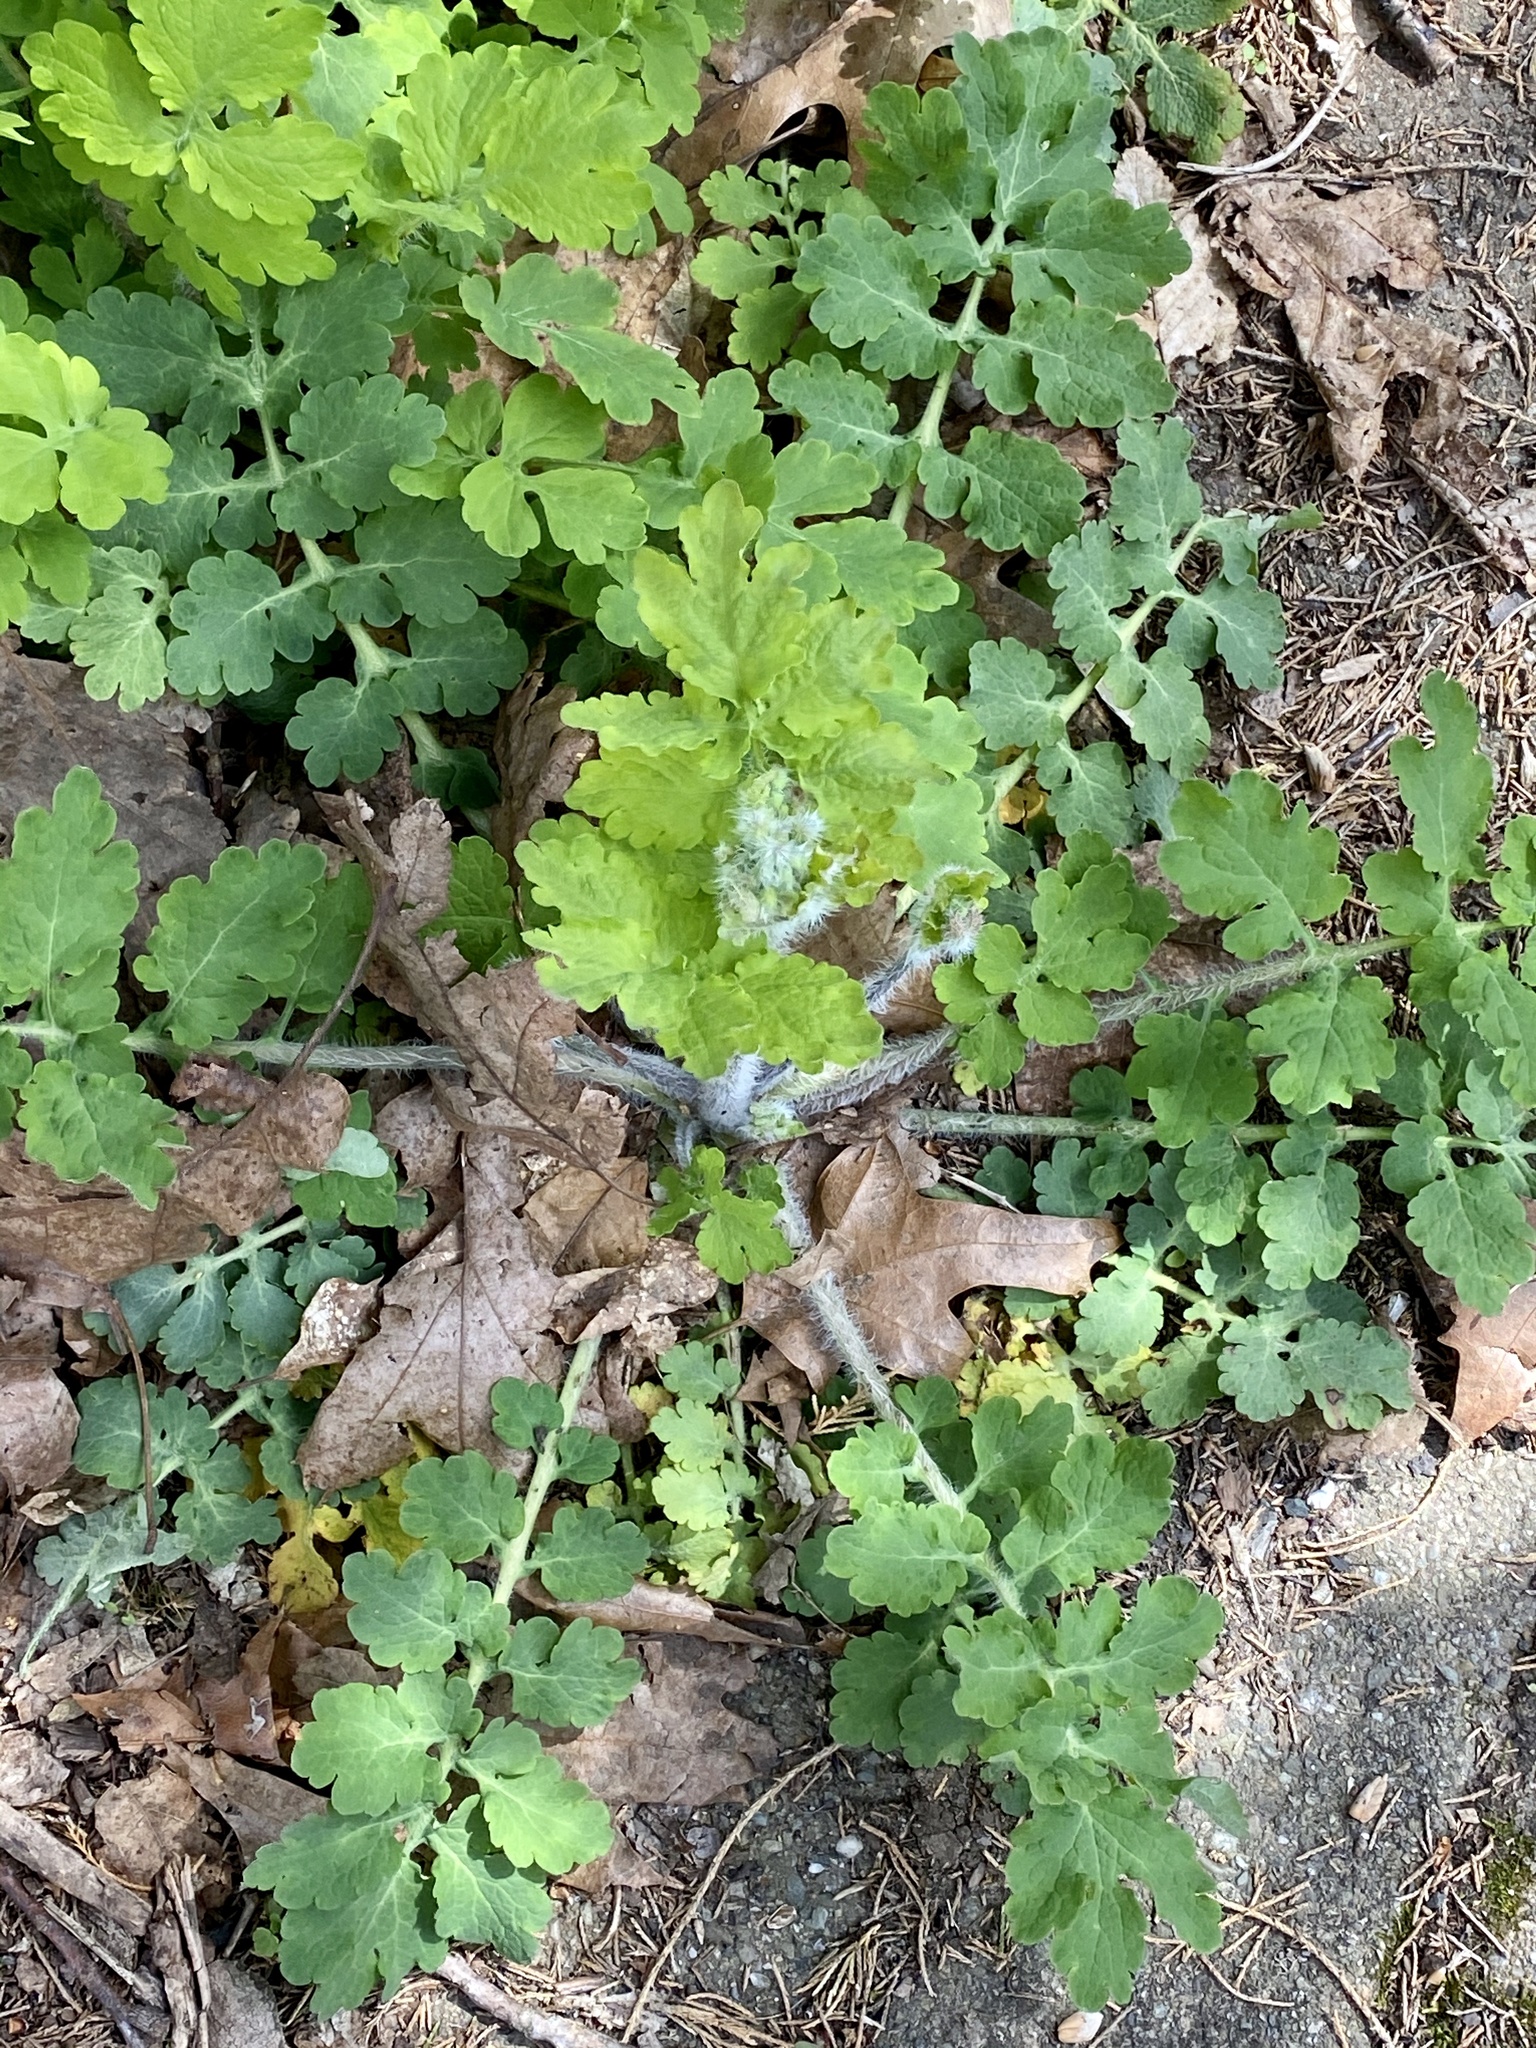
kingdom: Plantae
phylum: Tracheophyta
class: Magnoliopsida
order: Ranunculales
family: Papaveraceae
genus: Chelidonium
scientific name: Chelidonium majus
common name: Greater celandine
